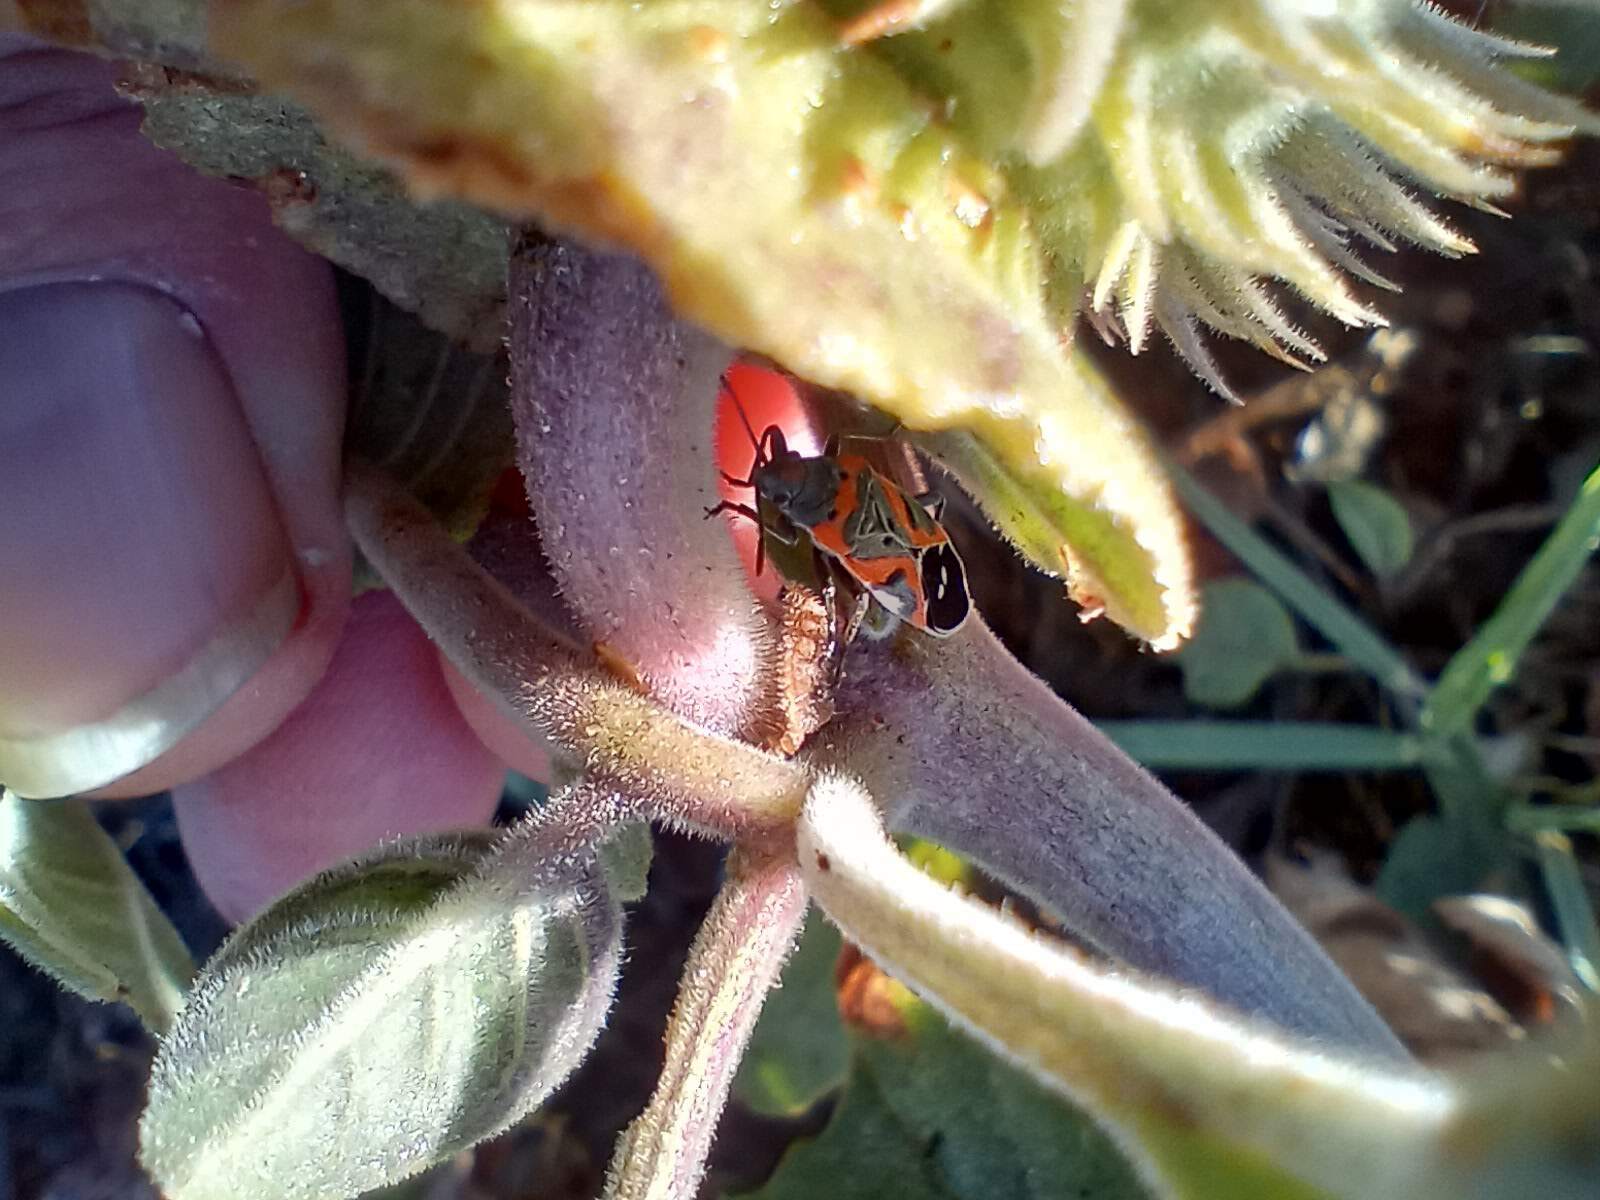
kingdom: Animalia
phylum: Arthropoda
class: Insecta
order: Hemiptera
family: Lygaeidae
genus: Lygaeus
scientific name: Lygaeus kalmii
